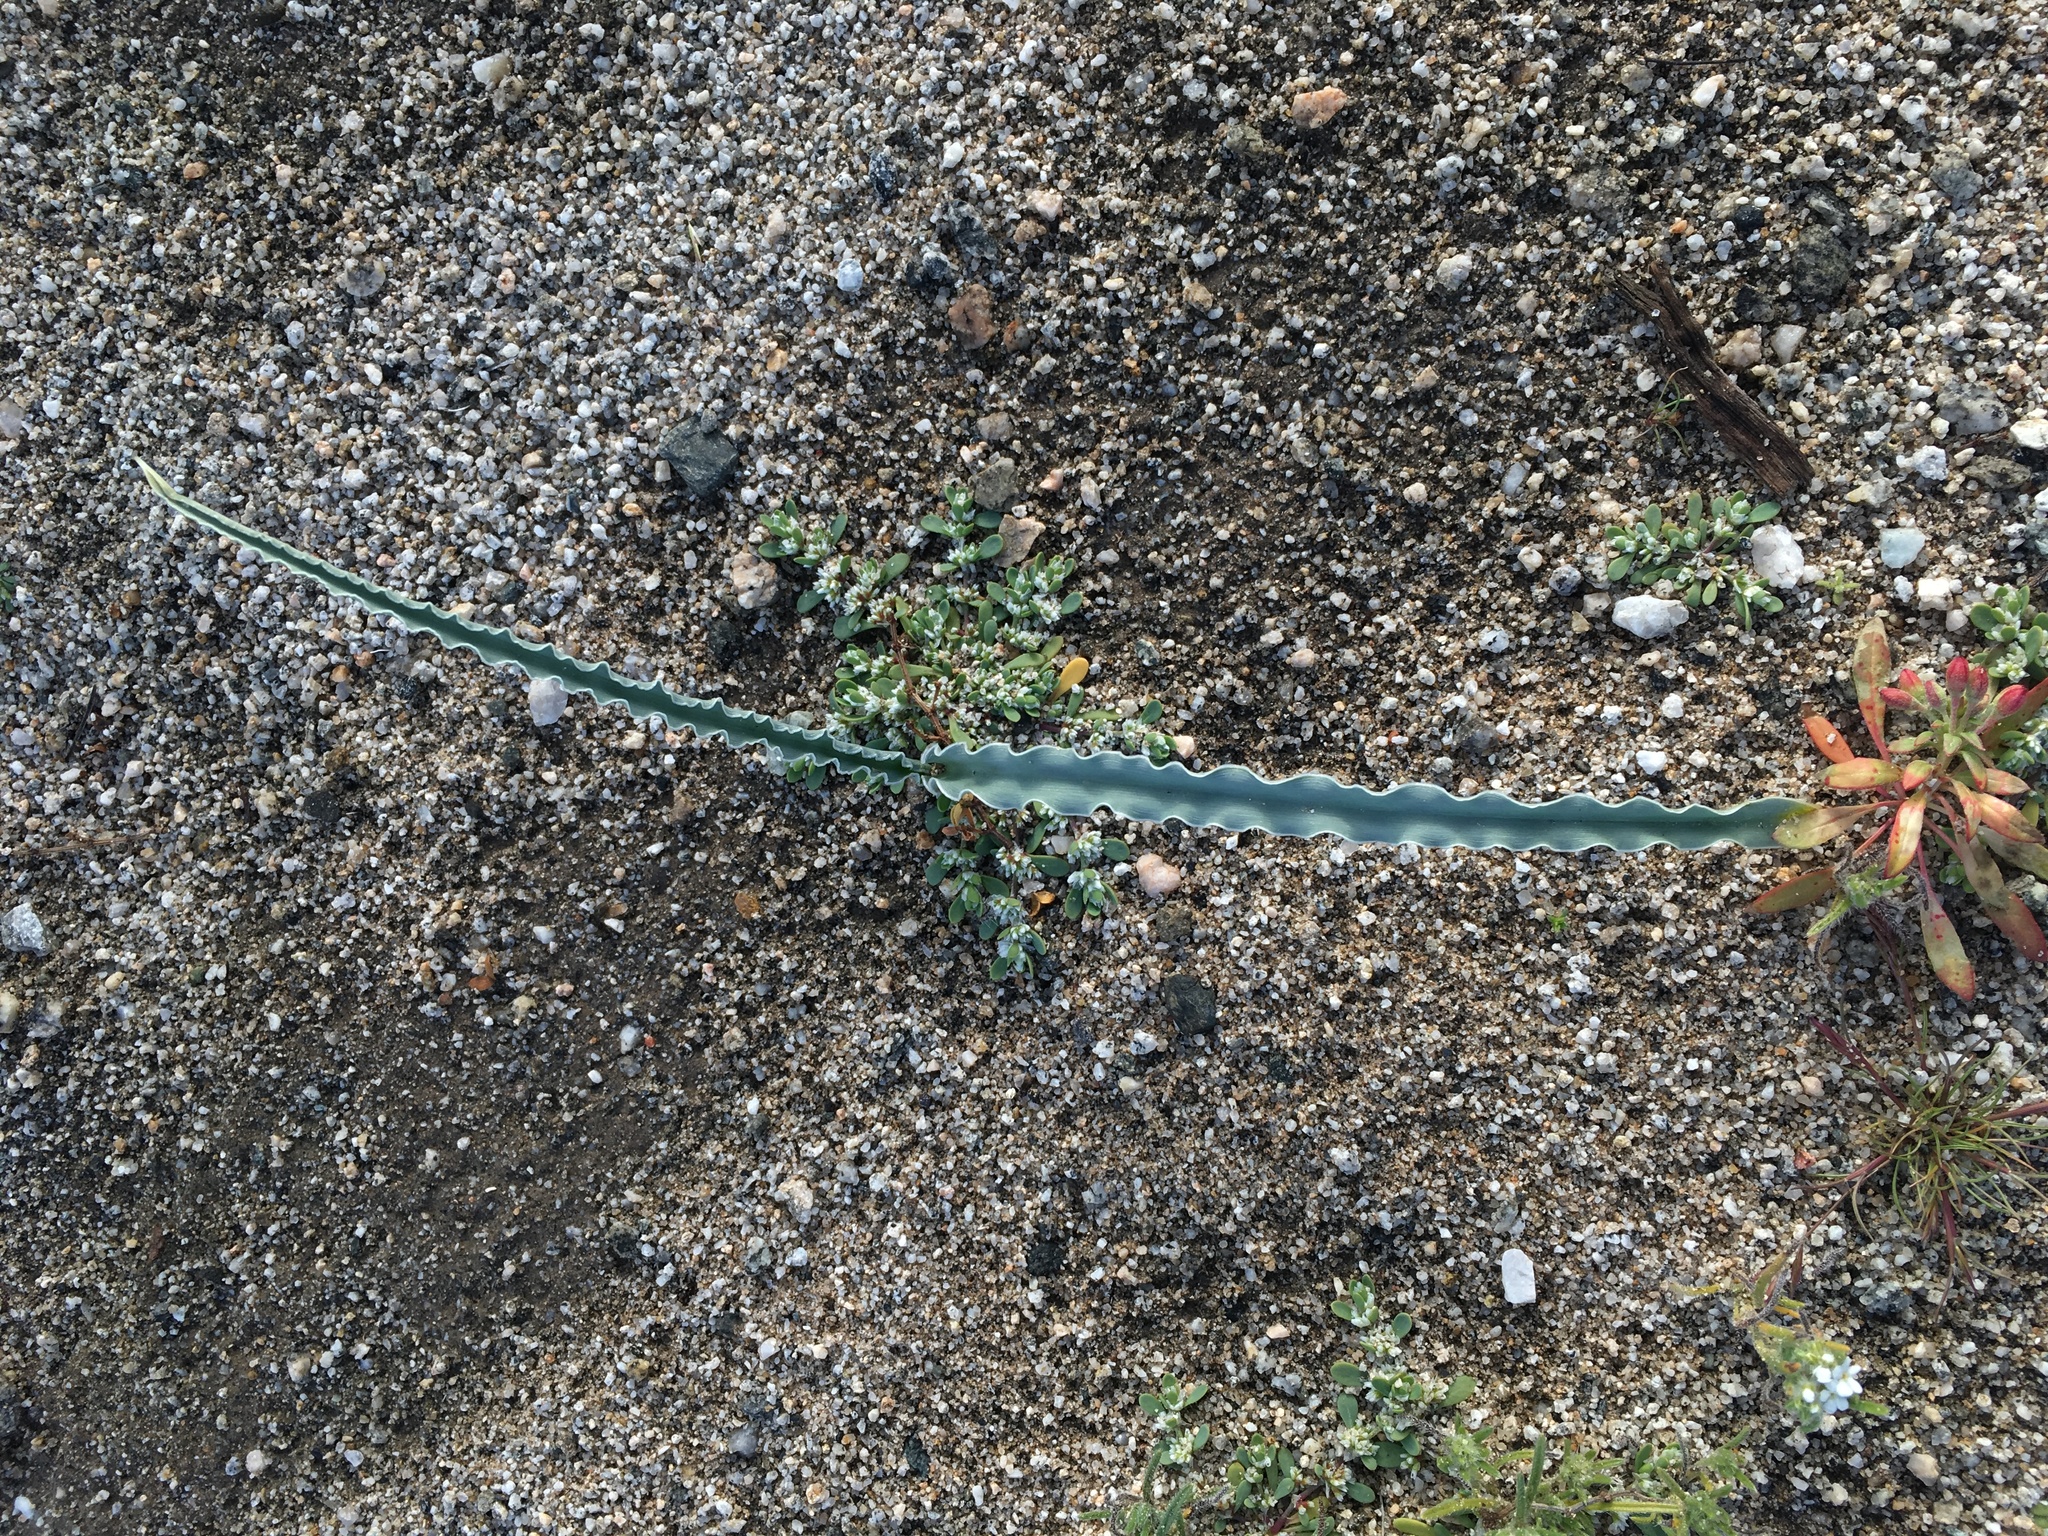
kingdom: Plantae
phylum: Tracheophyta
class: Liliopsida
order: Asparagales
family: Asparagaceae
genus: Hesperocallis
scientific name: Hesperocallis undulata
